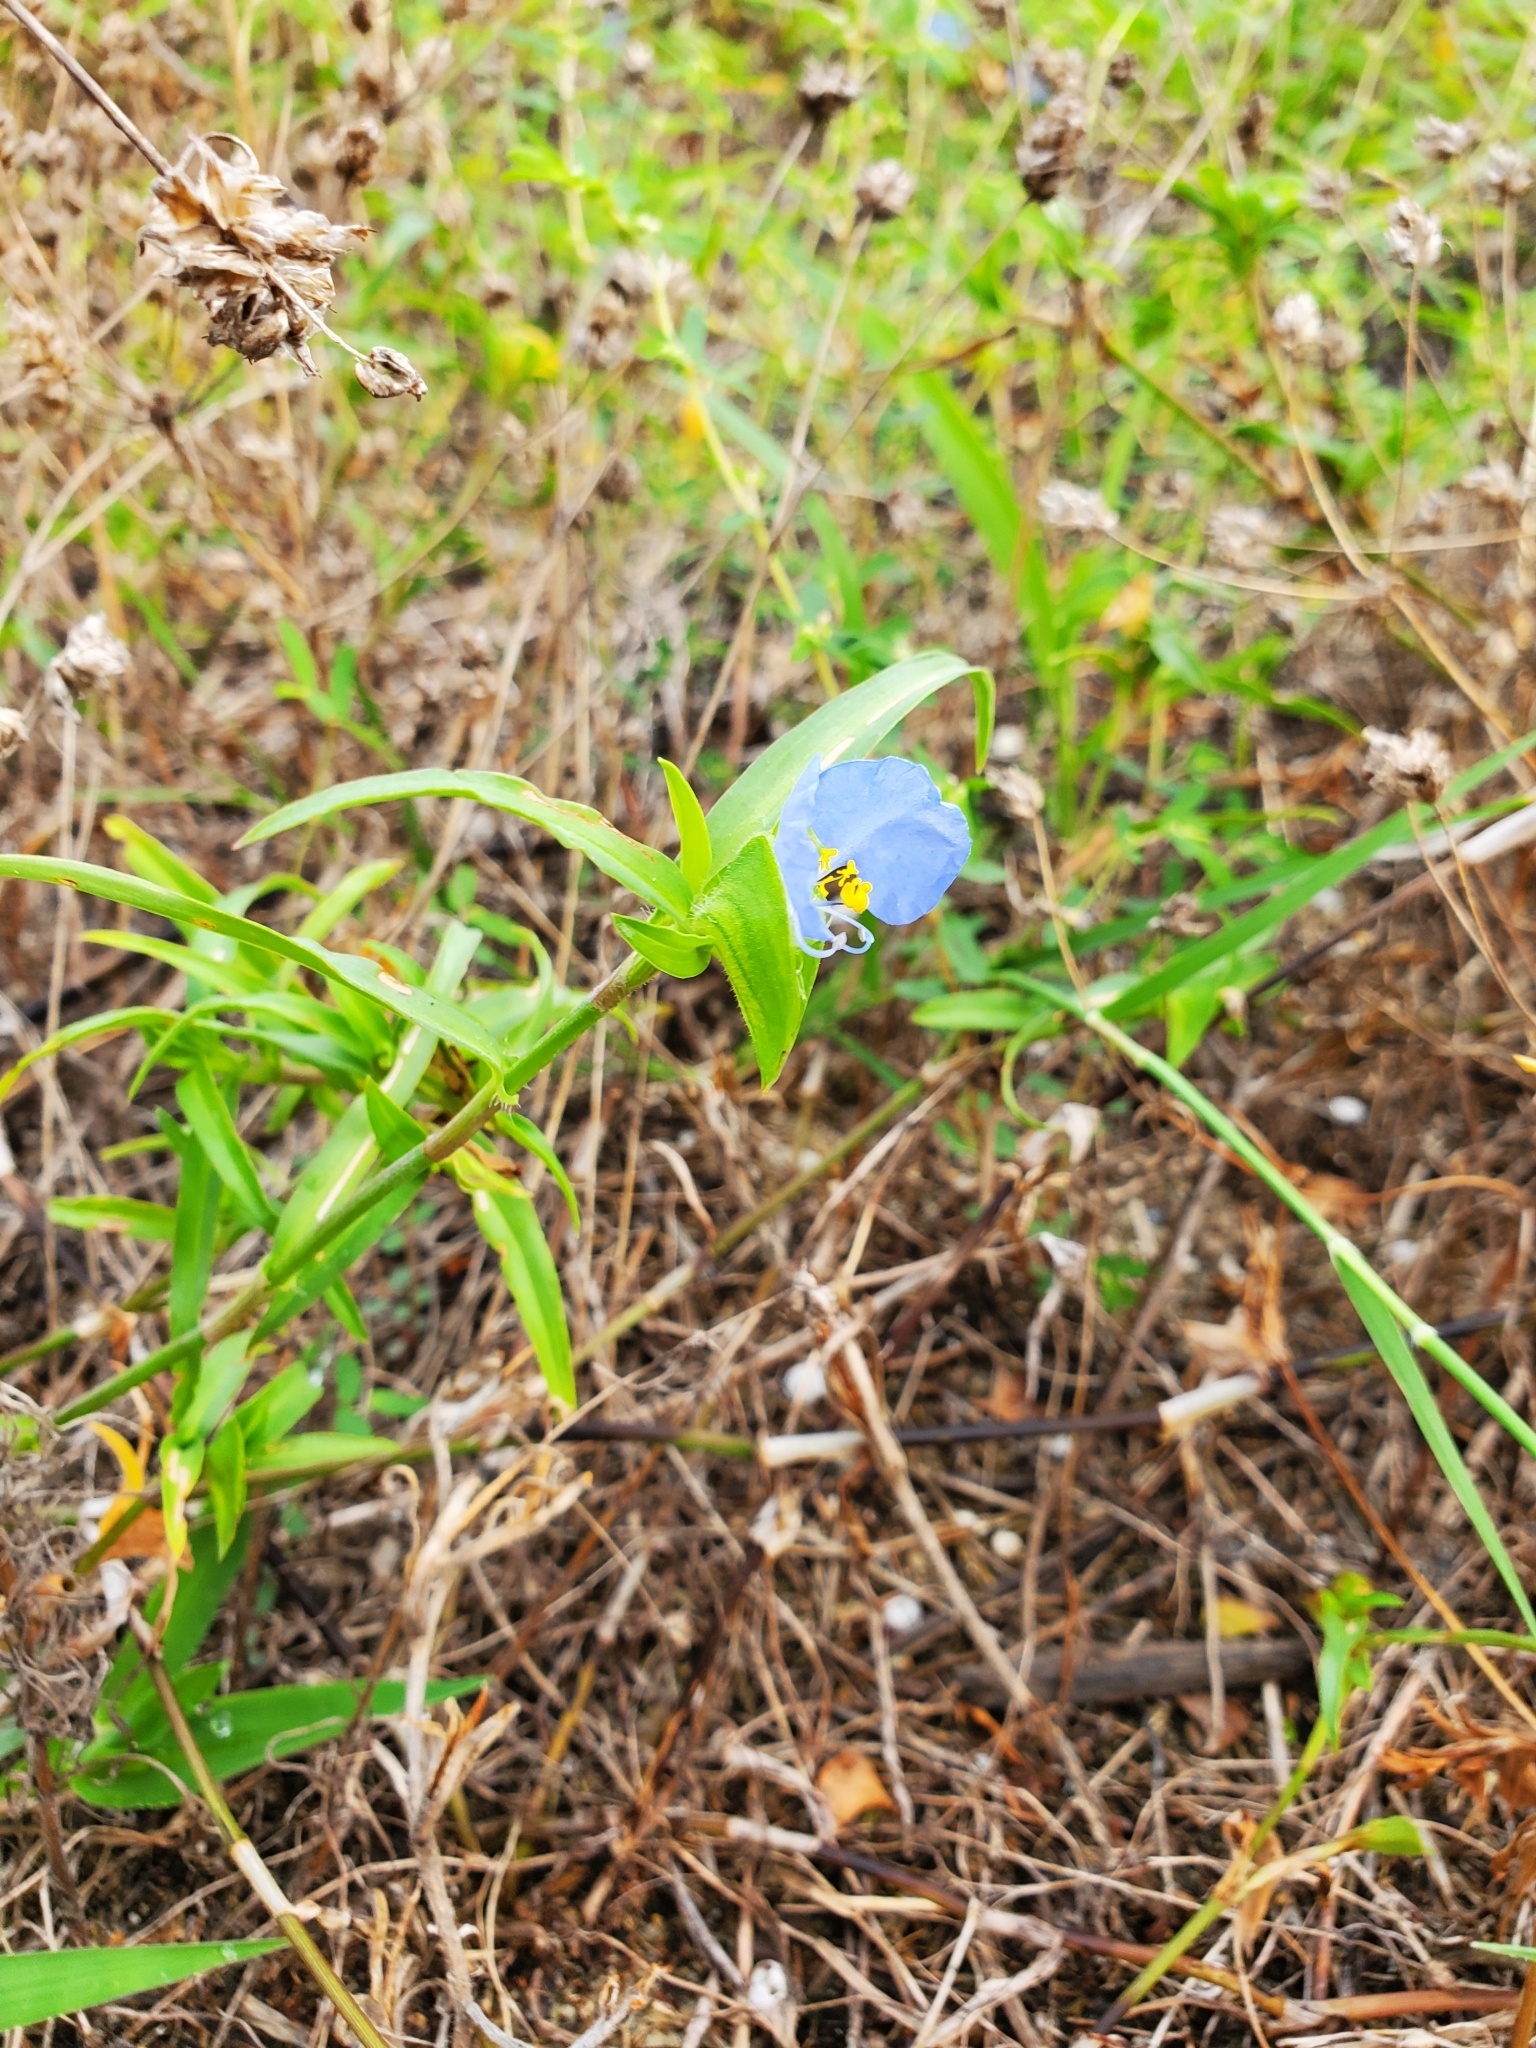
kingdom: Plantae
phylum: Tracheophyta
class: Liliopsida
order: Commelinales
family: Commelinaceae
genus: Commelina
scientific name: Commelina erecta
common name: Blousel blommetjie
